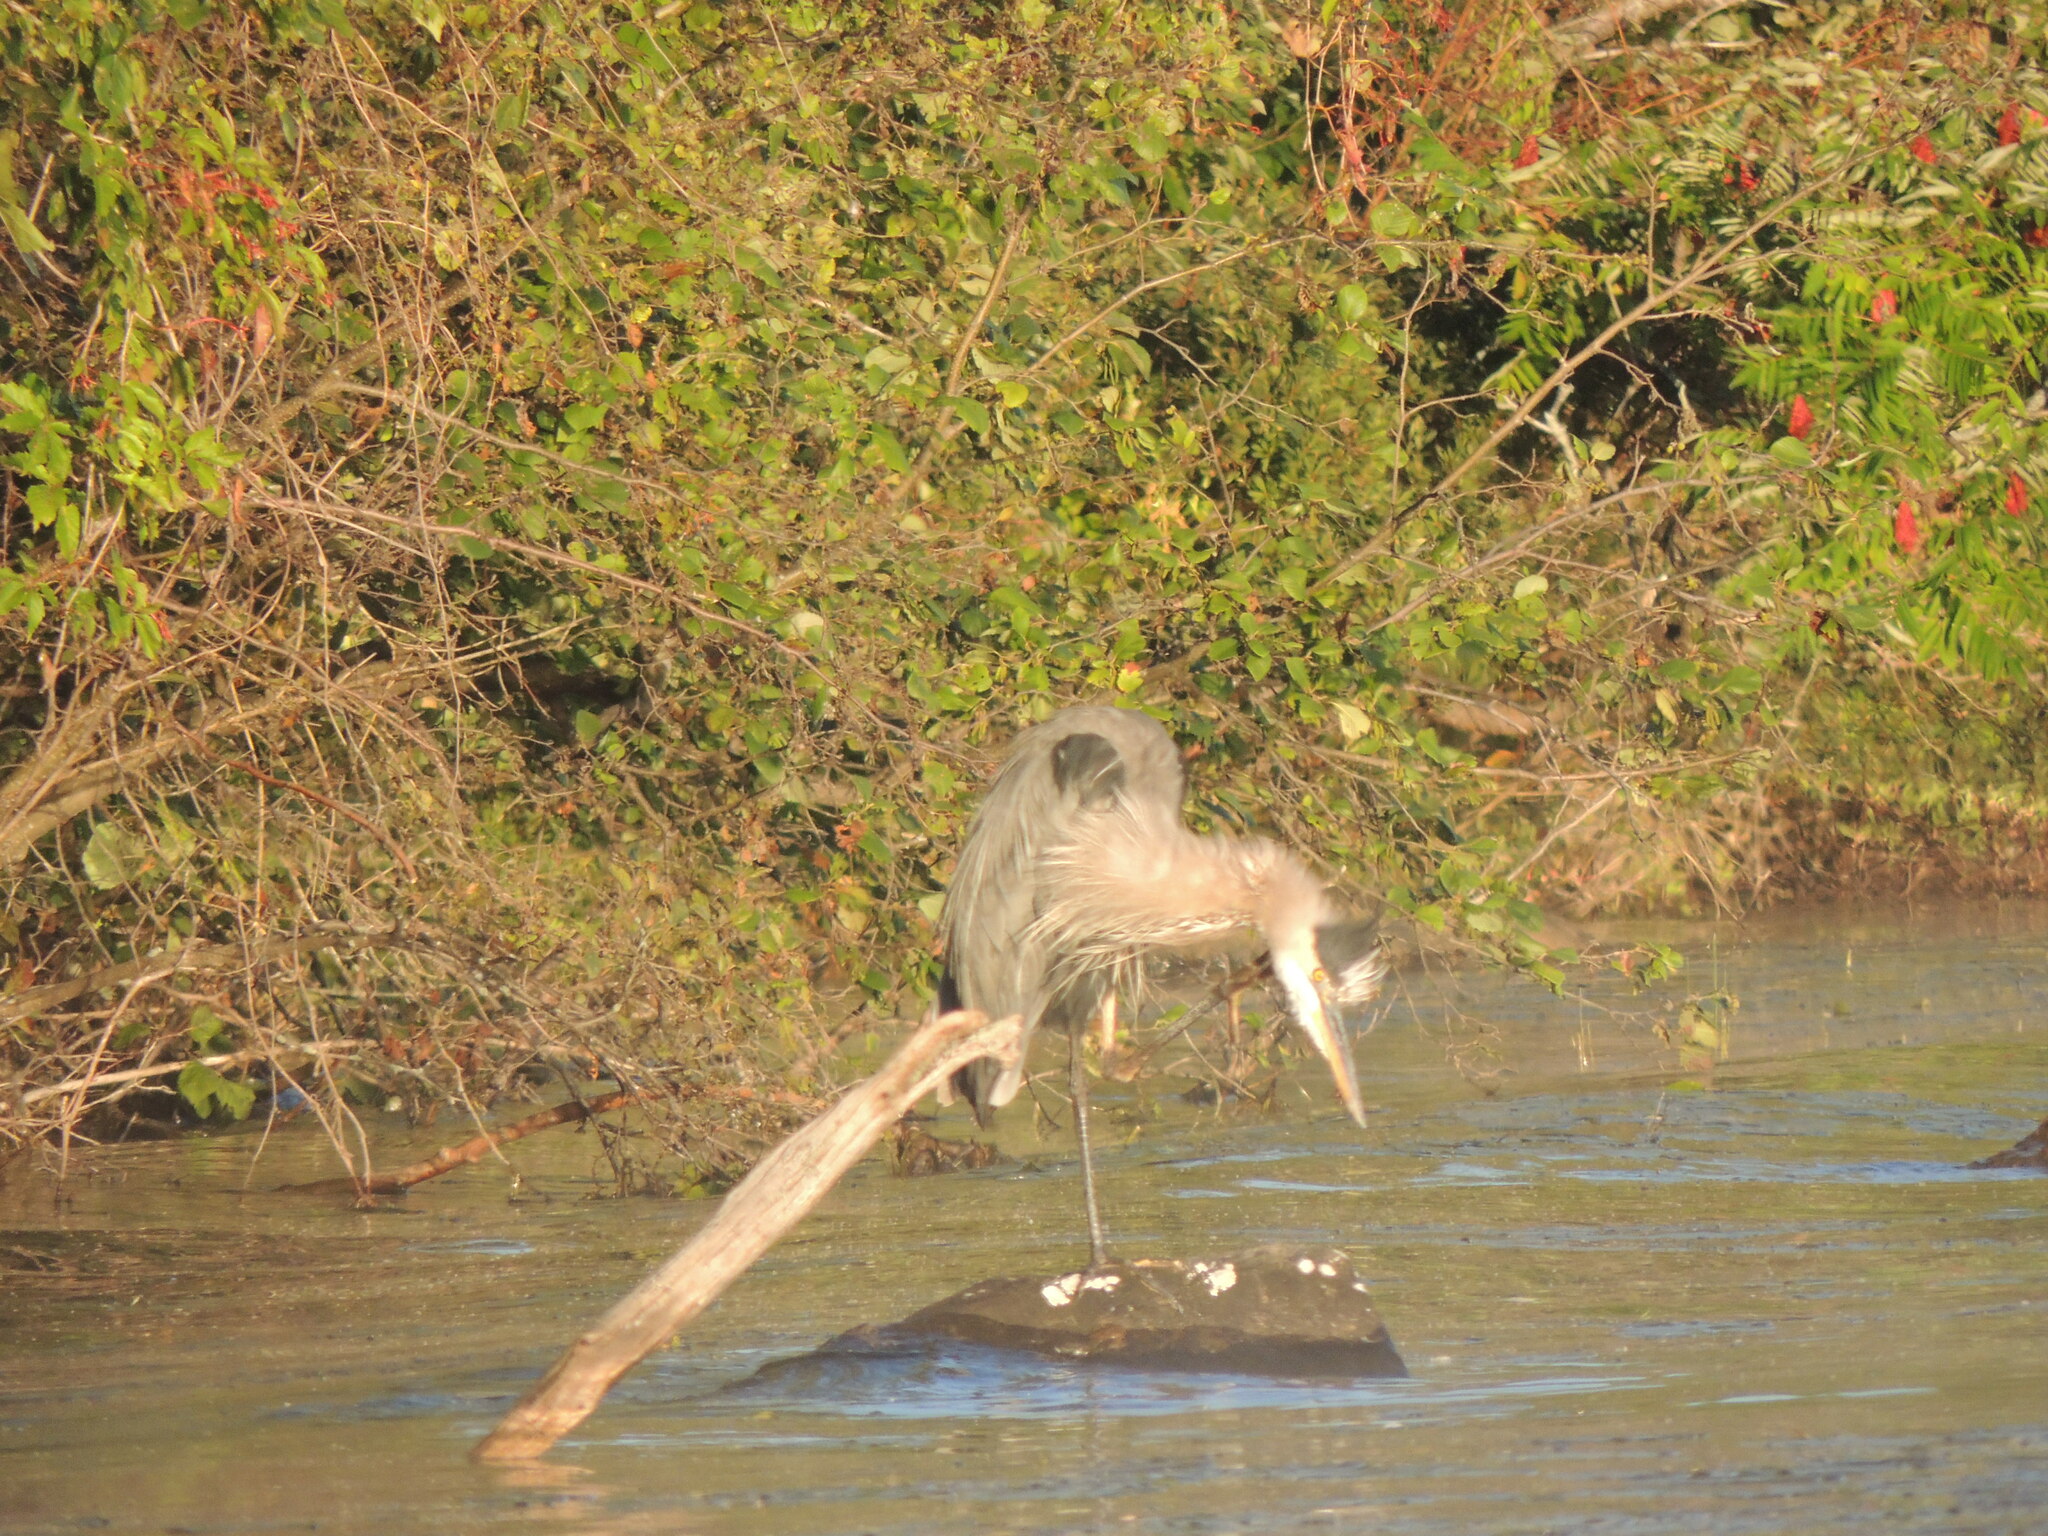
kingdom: Animalia
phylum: Chordata
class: Aves
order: Pelecaniformes
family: Ardeidae
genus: Ardea
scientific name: Ardea herodias
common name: Great blue heron
